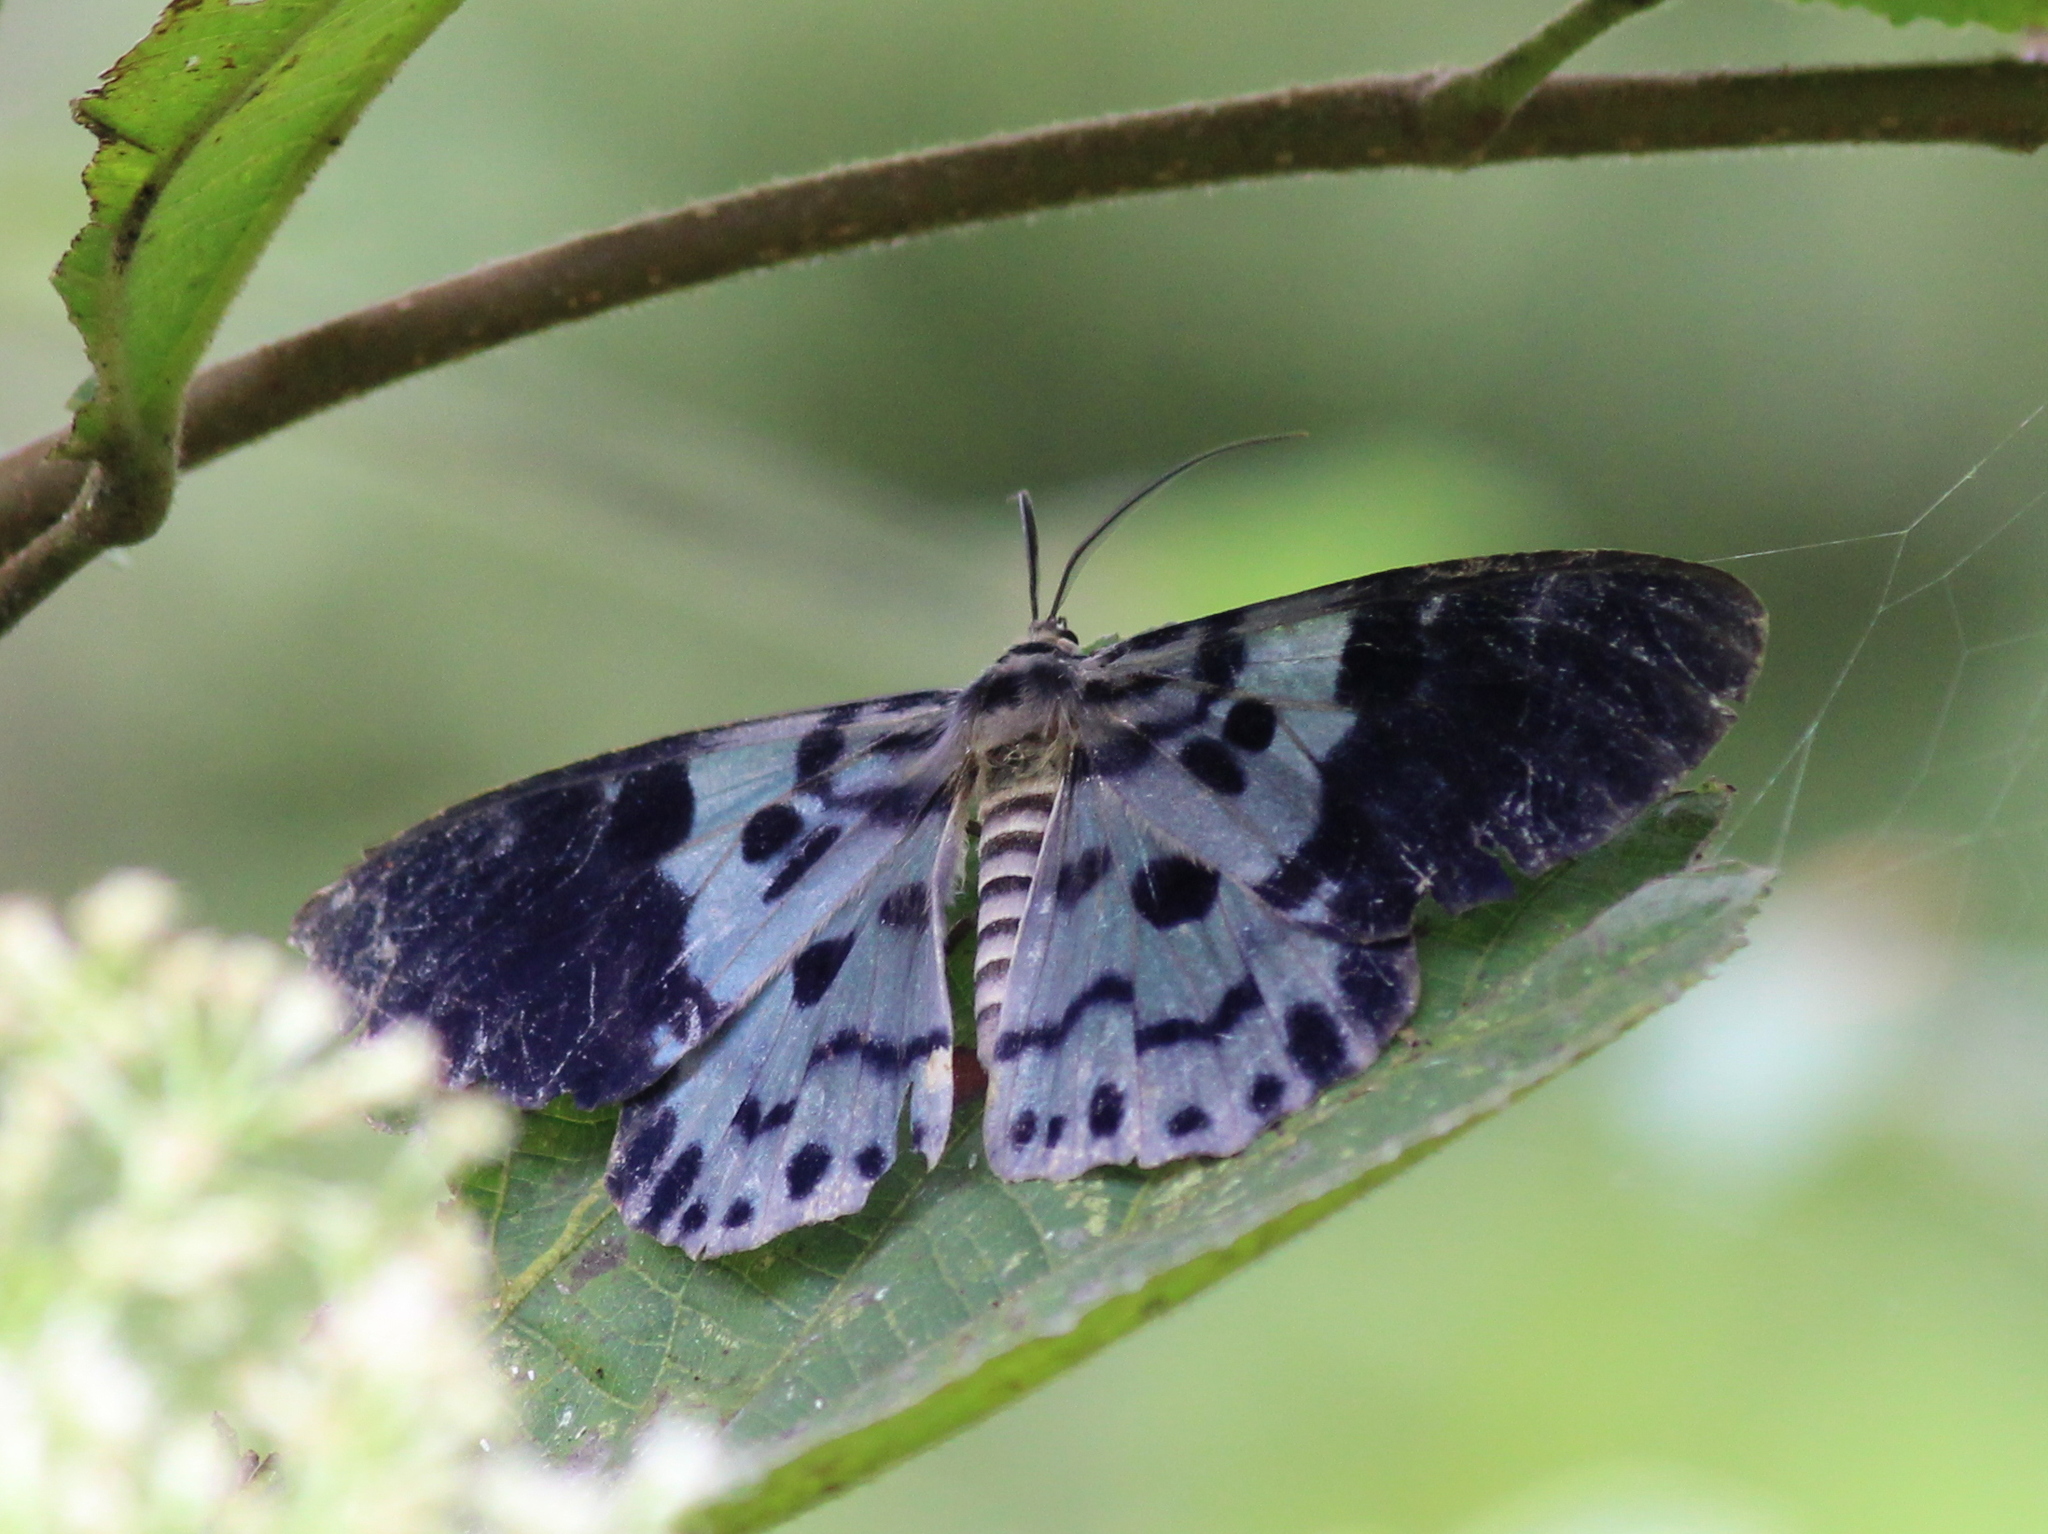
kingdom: Animalia
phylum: Arthropoda
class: Insecta
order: Lepidoptera
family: Geometridae
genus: Dysphania
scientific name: Dysphania percota
